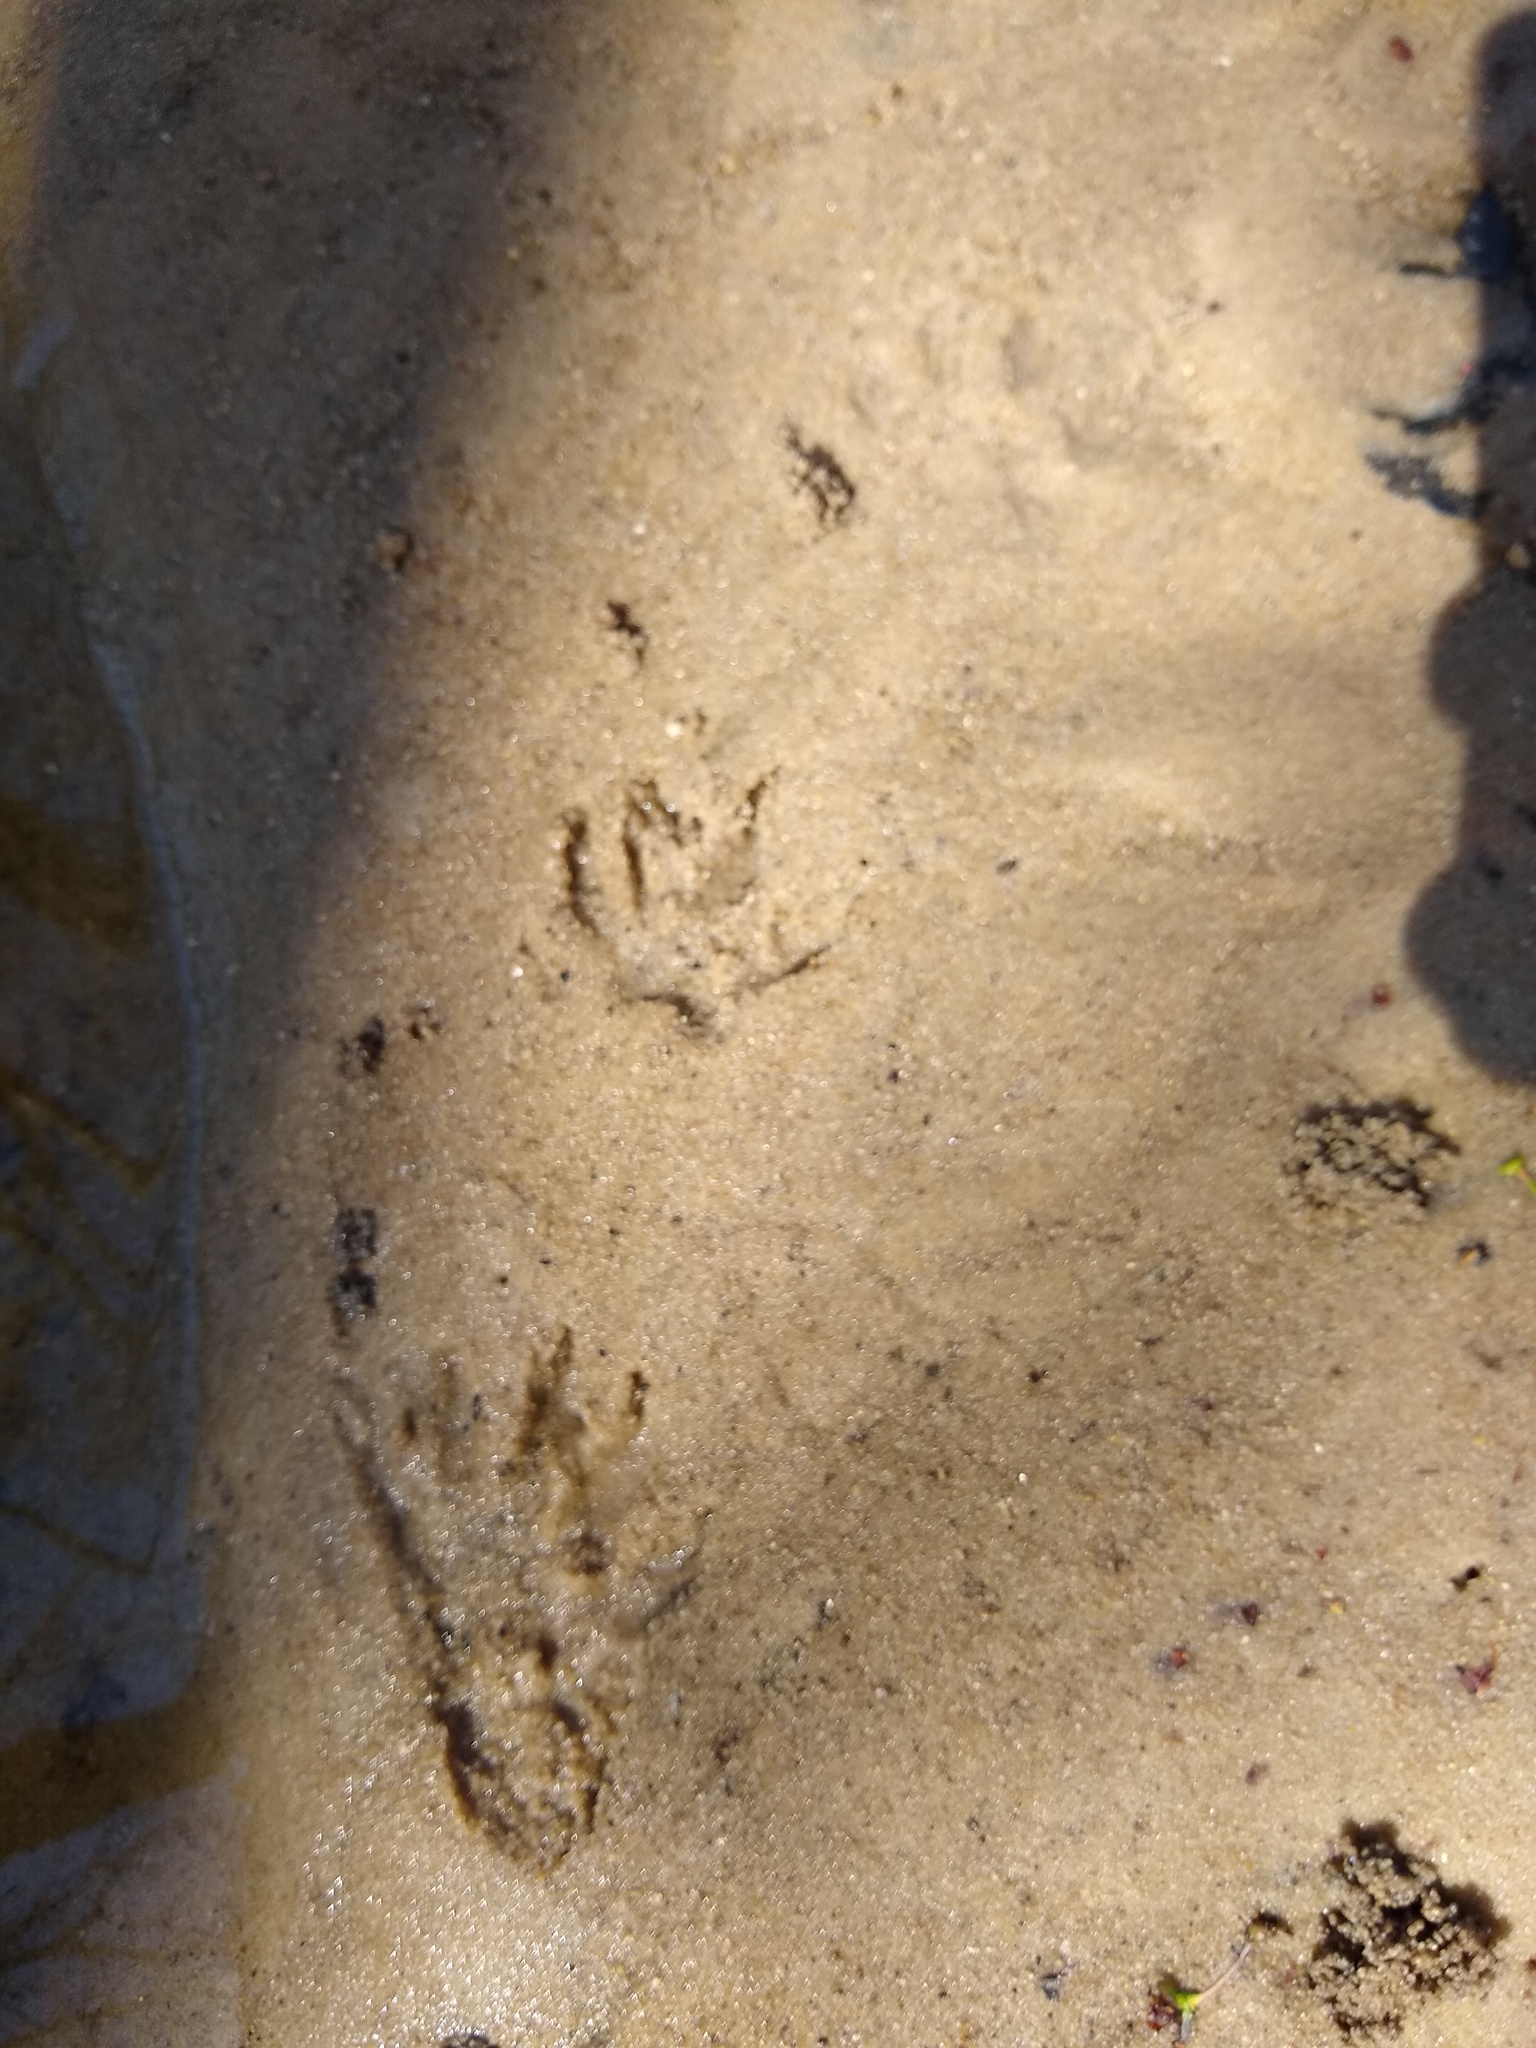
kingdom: Animalia
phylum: Chordata
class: Mammalia
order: Carnivora
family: Procyonidae
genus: Procyon
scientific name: Procyon lotor
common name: Raccoon
